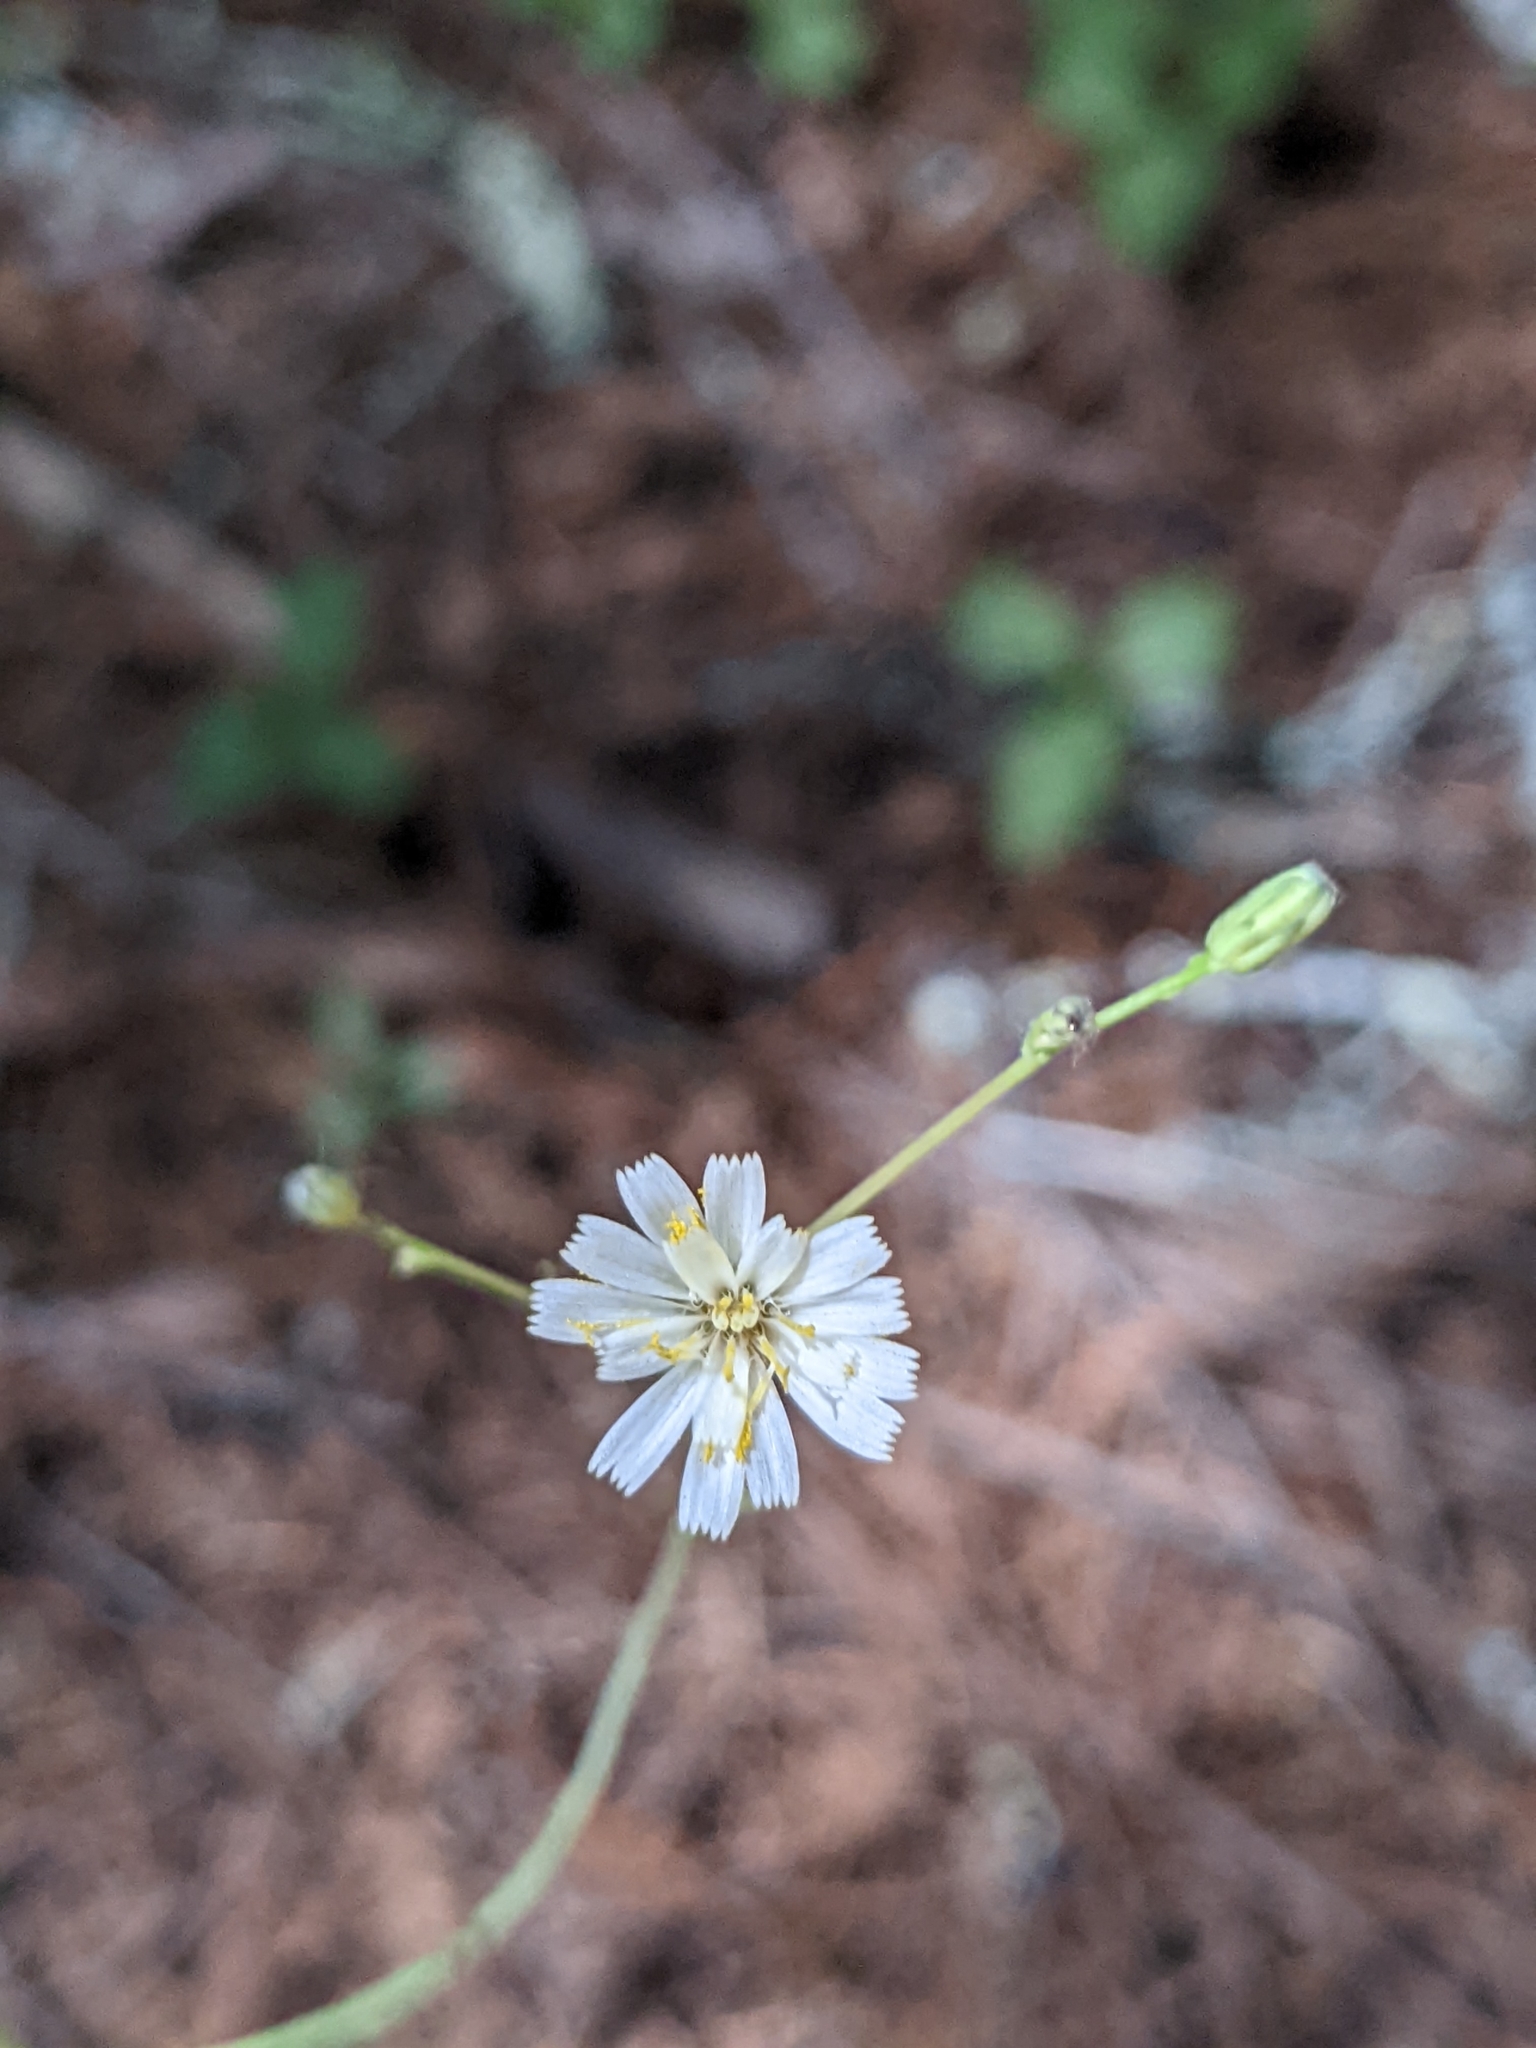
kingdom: Plantae
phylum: Tracheophyta
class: Magnoliopsida
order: Asterales
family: Asteraceae
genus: Hieracium
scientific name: Hieracium albiflorum
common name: White hawkweed
